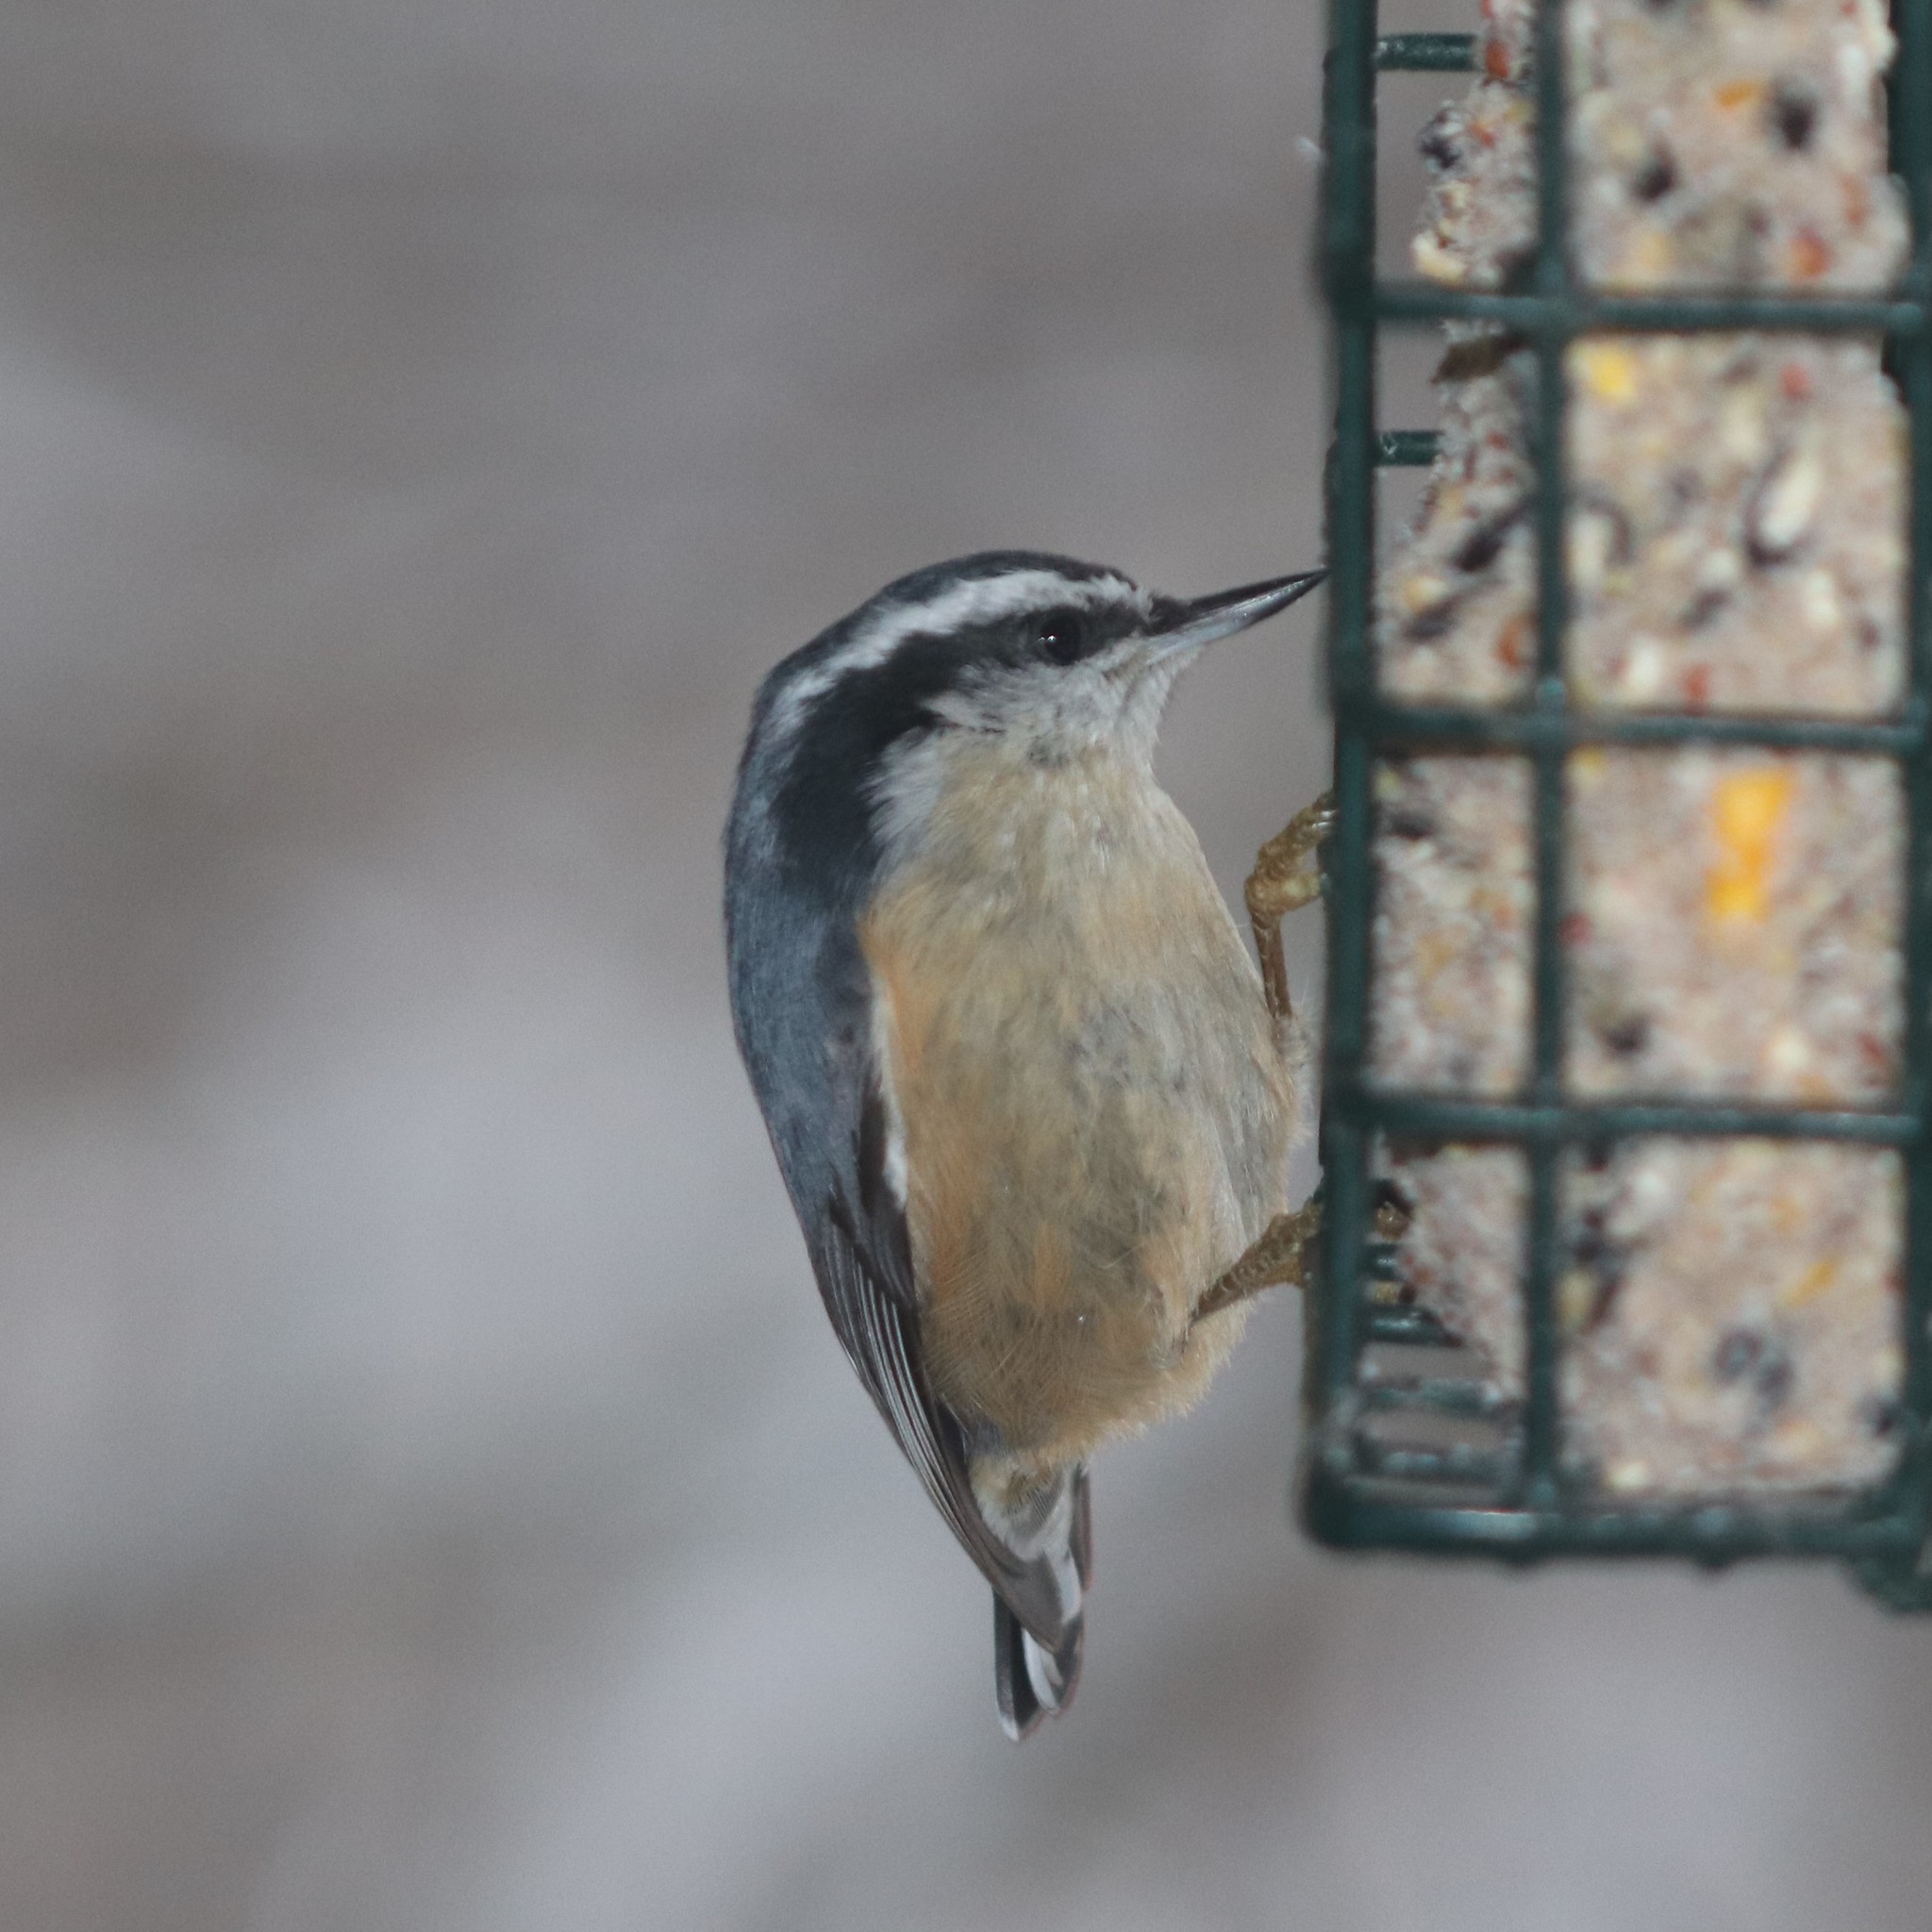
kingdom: Animalia
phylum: Chordata
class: Aves
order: Passeriformes
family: Sittidae
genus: Sitta
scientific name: Sitta canadensis
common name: Red-breasted nuthatch
